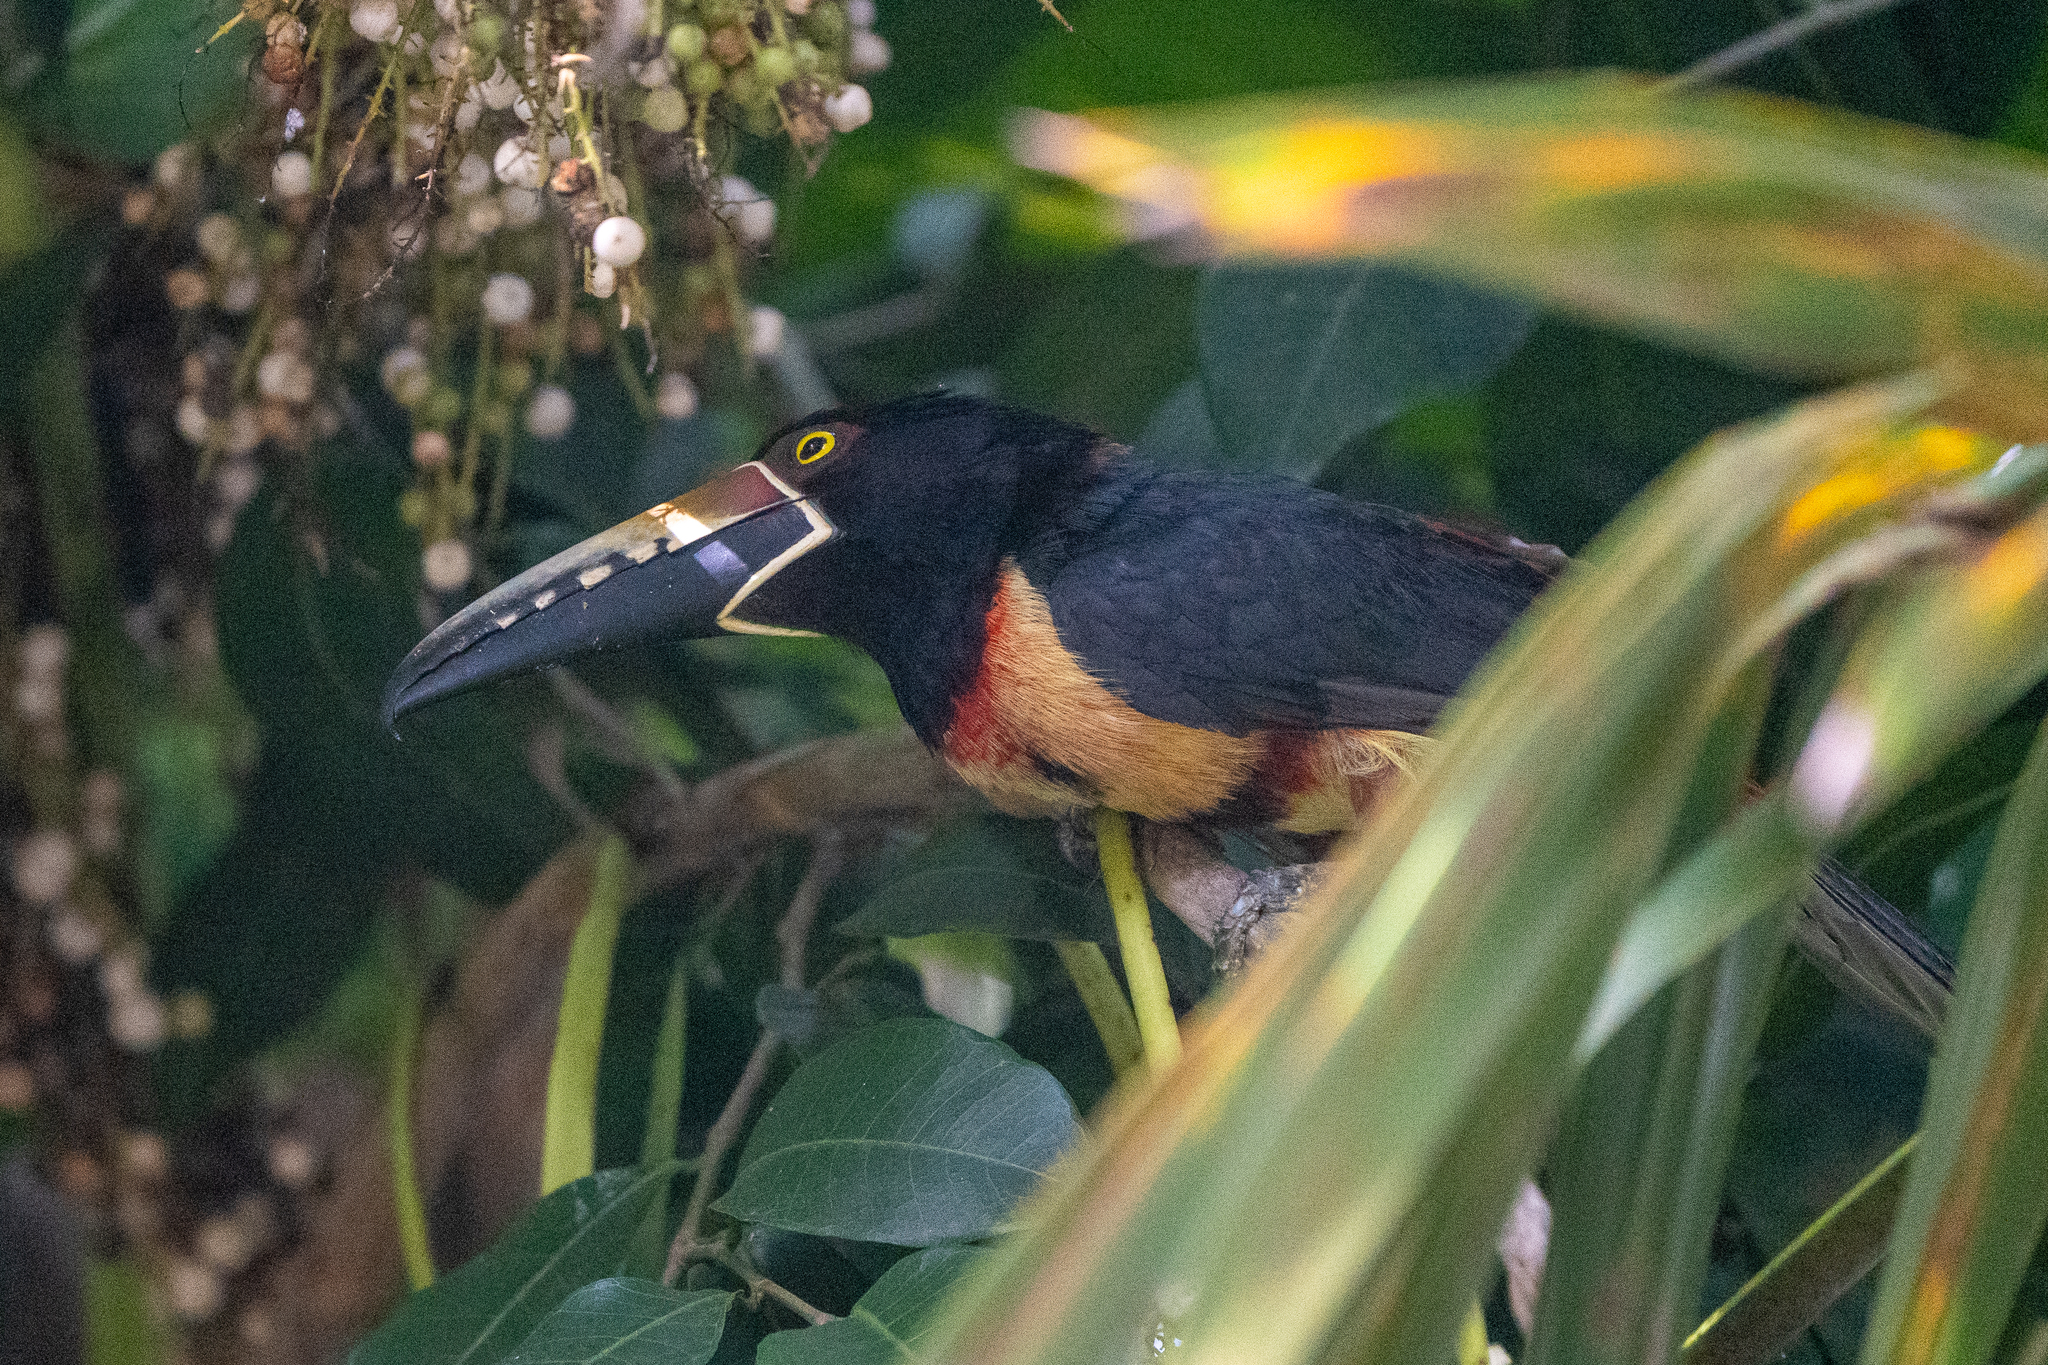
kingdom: Animalia
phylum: Chordata
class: Aves
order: Piciformes
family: Ramphastidae
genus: Pteroglossus
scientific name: Pteroglossus torquatus
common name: Collared aracari
